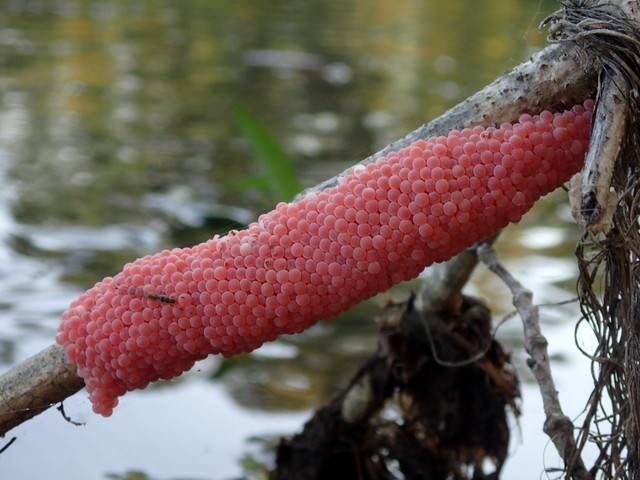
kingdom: Animalia
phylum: Mollusca
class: Gastropoda
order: Architaenioglossa
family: Ampullariidae
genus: Pomacea
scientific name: Pomacea maculata
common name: Giant applesnail
